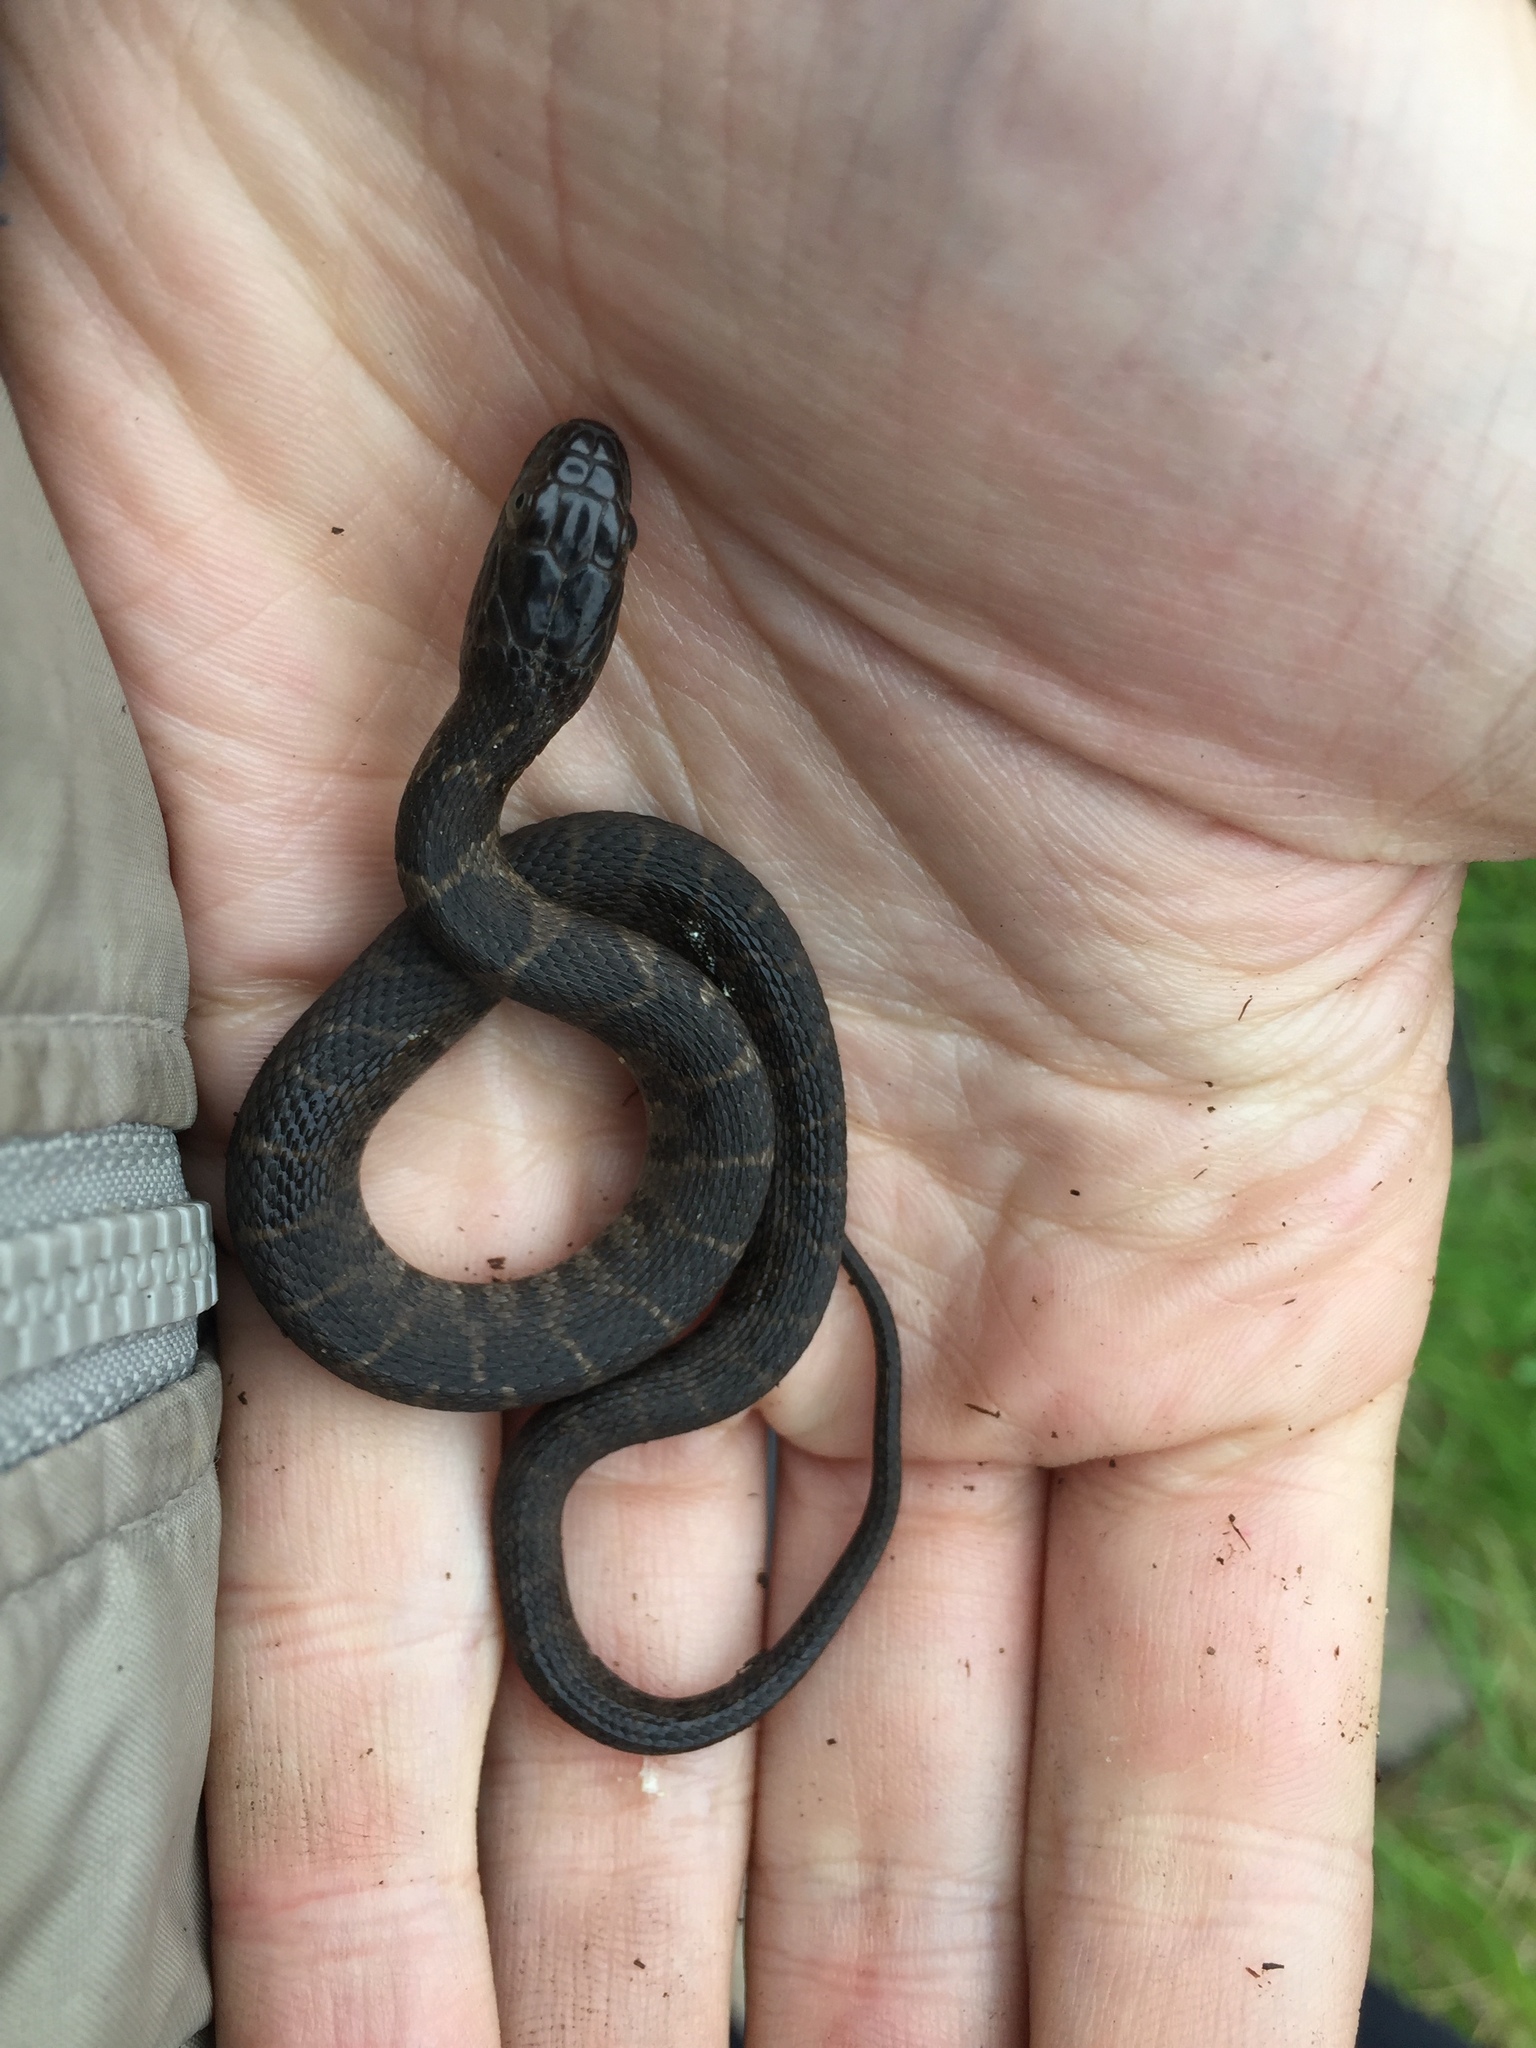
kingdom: Animalia
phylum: Chordata
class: Squamata
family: Colubridae
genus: Nerodia
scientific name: Nerodia sipedon
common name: Northern water snake
